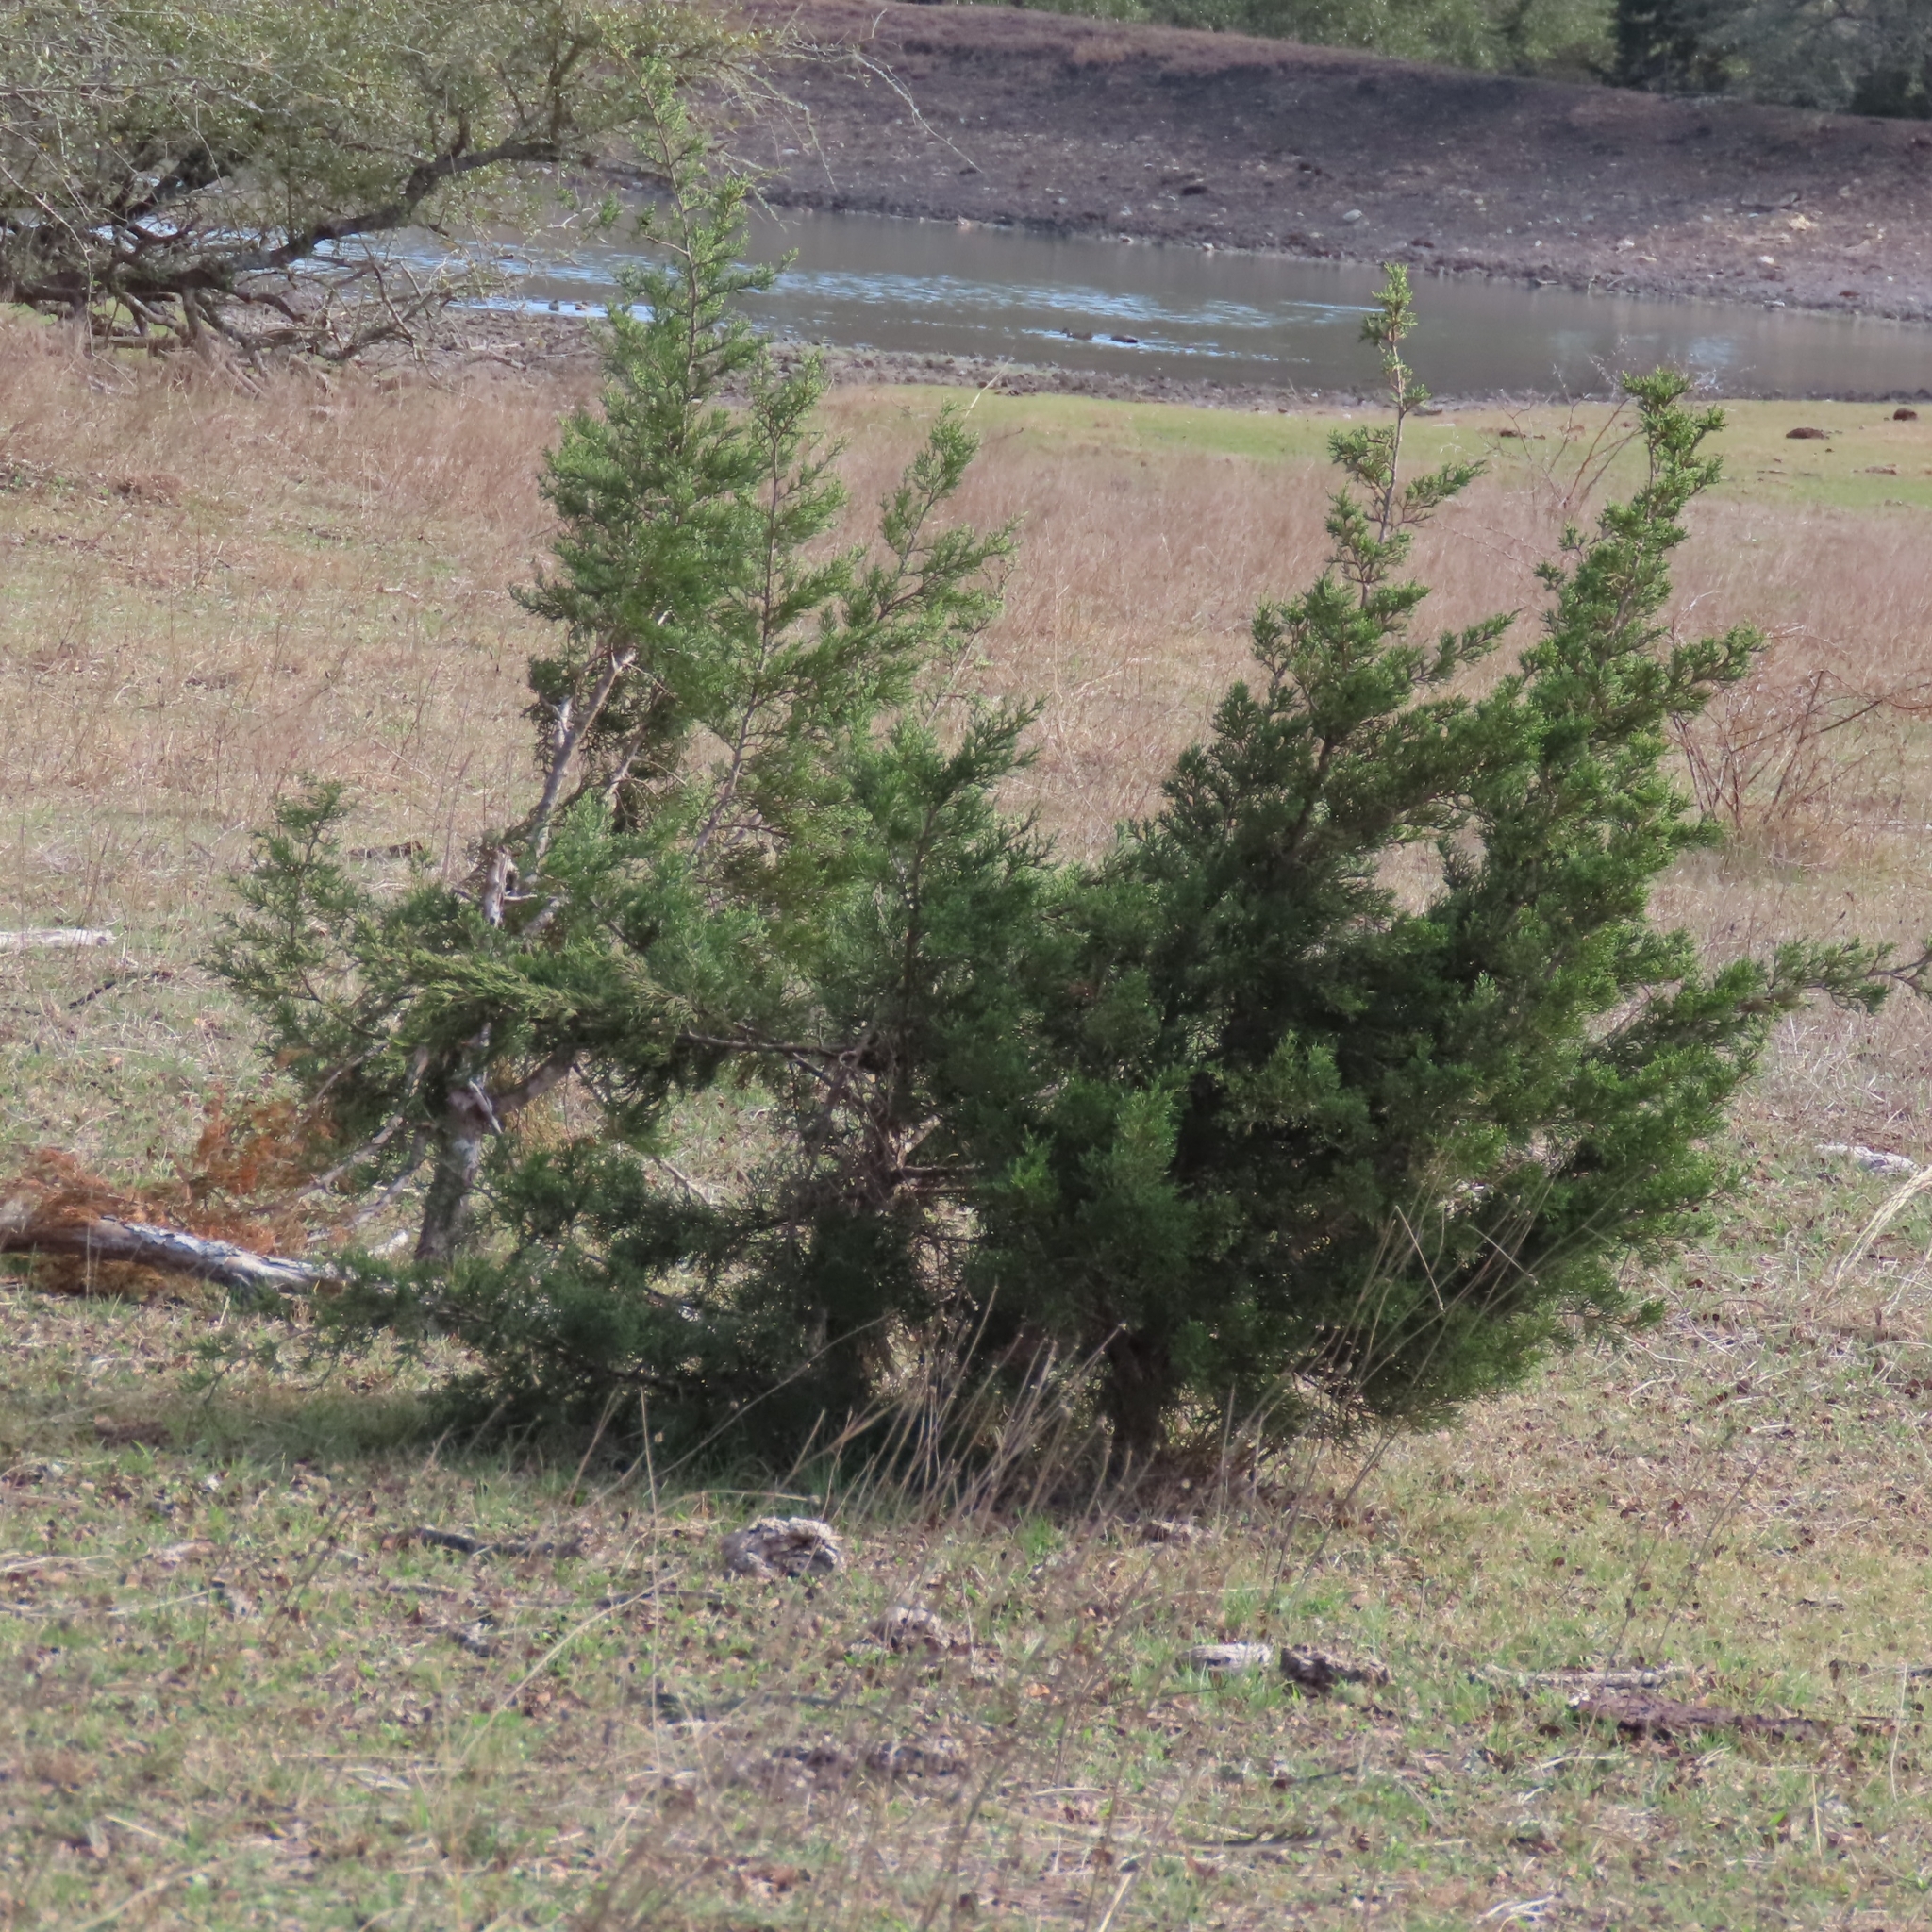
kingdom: Plantae
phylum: Tracheophyta
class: Pinopsida
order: Pinales
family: Cupressaceae
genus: Juniperus
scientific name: Juniperus ashei
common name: Mexican juniper
